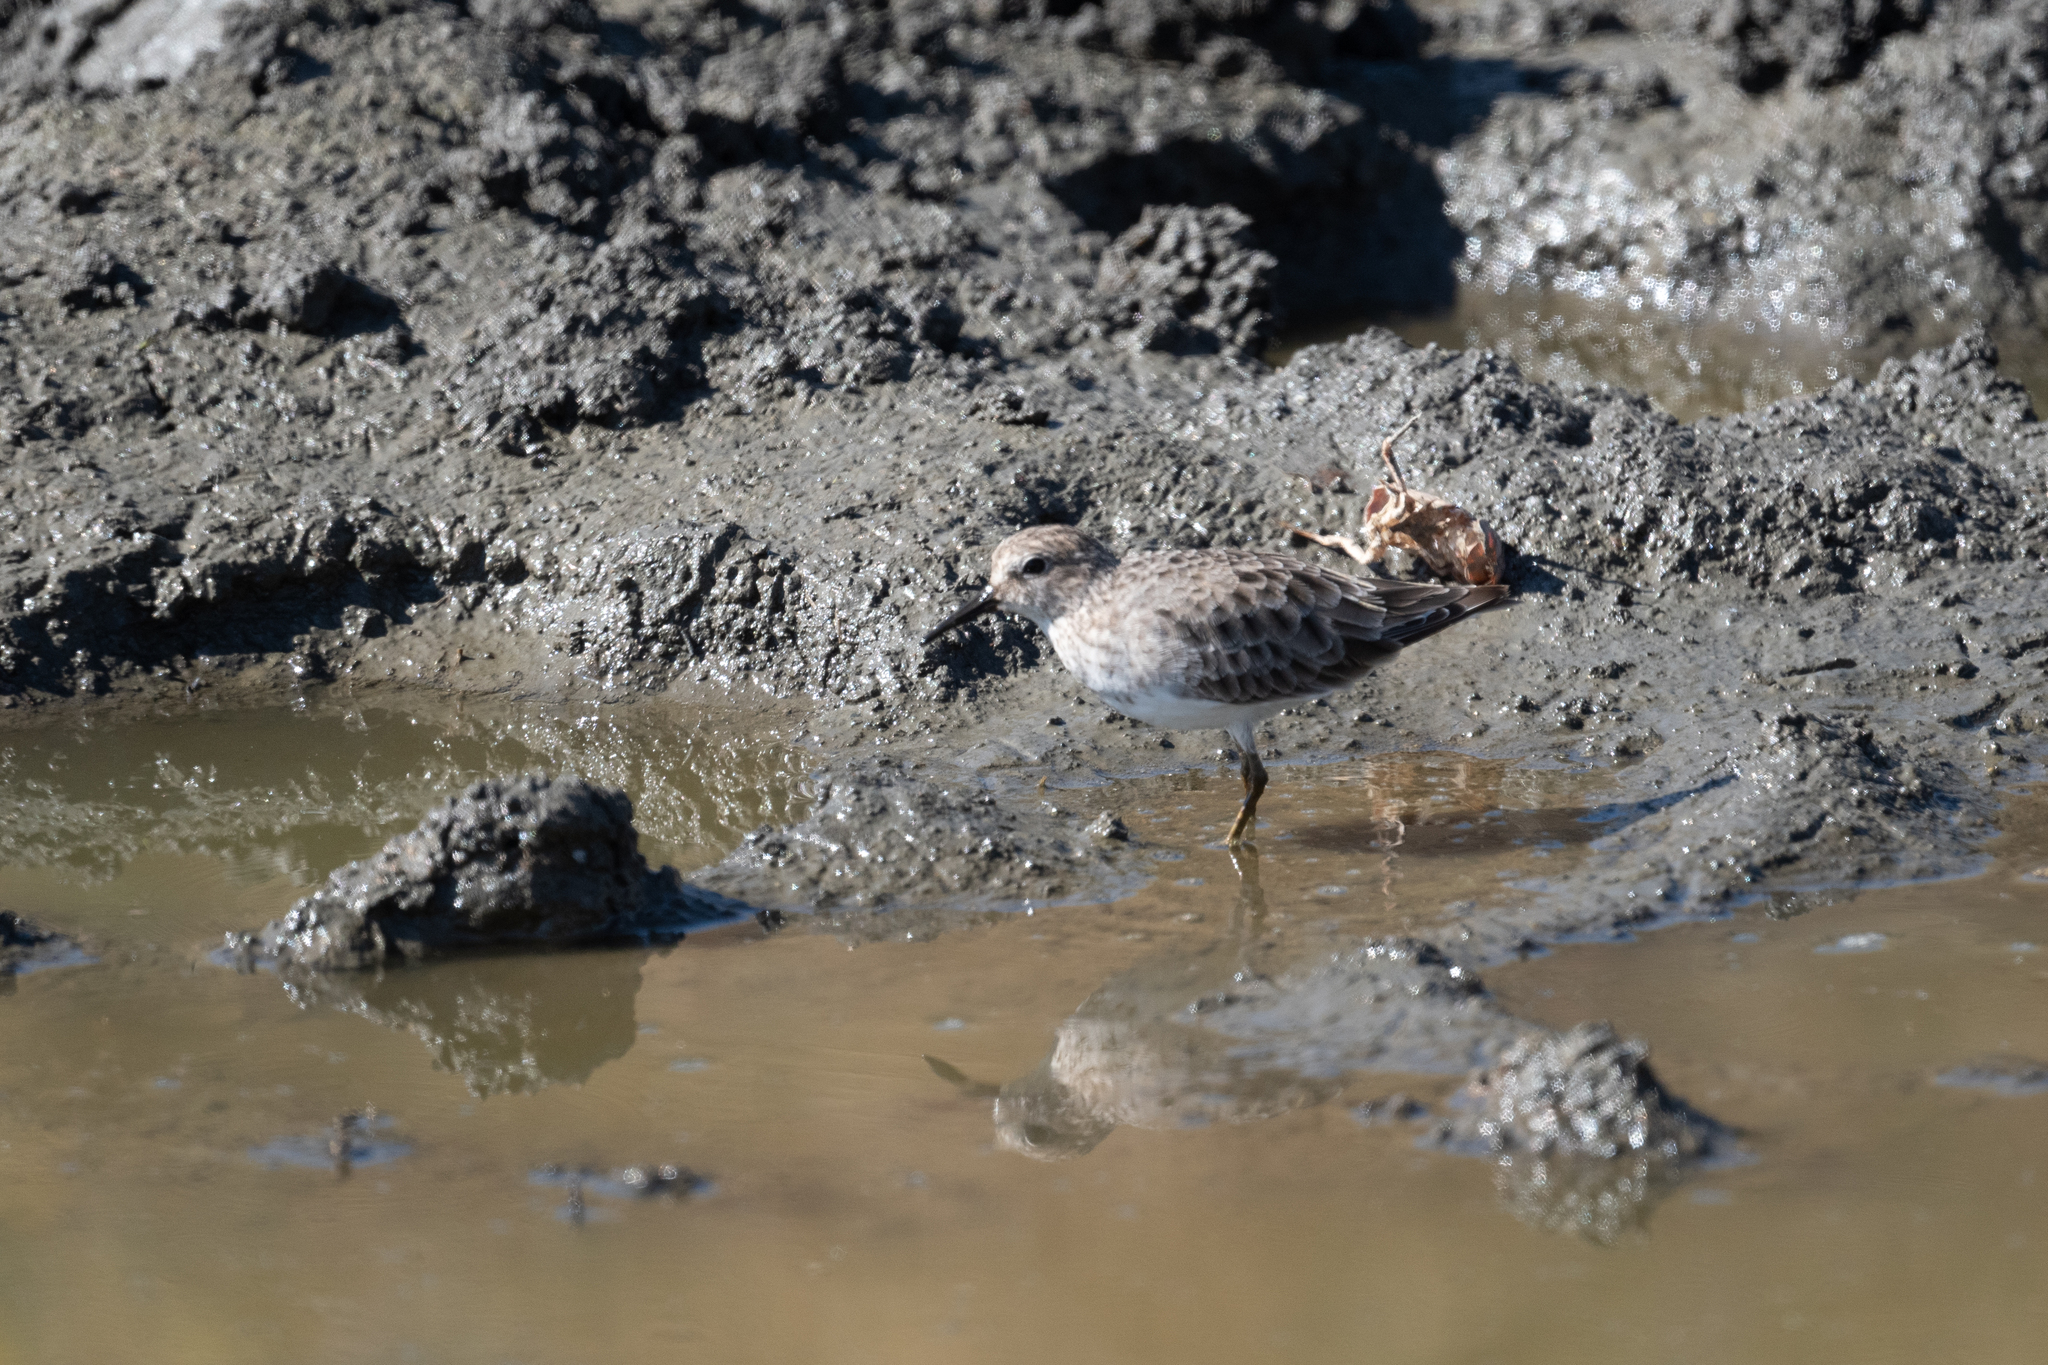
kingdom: Animalia
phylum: Chordata
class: Aves
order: Charadriiformes
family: Scolopacidae
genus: Calidris
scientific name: Calidris minutilla
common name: Least sandpiper
